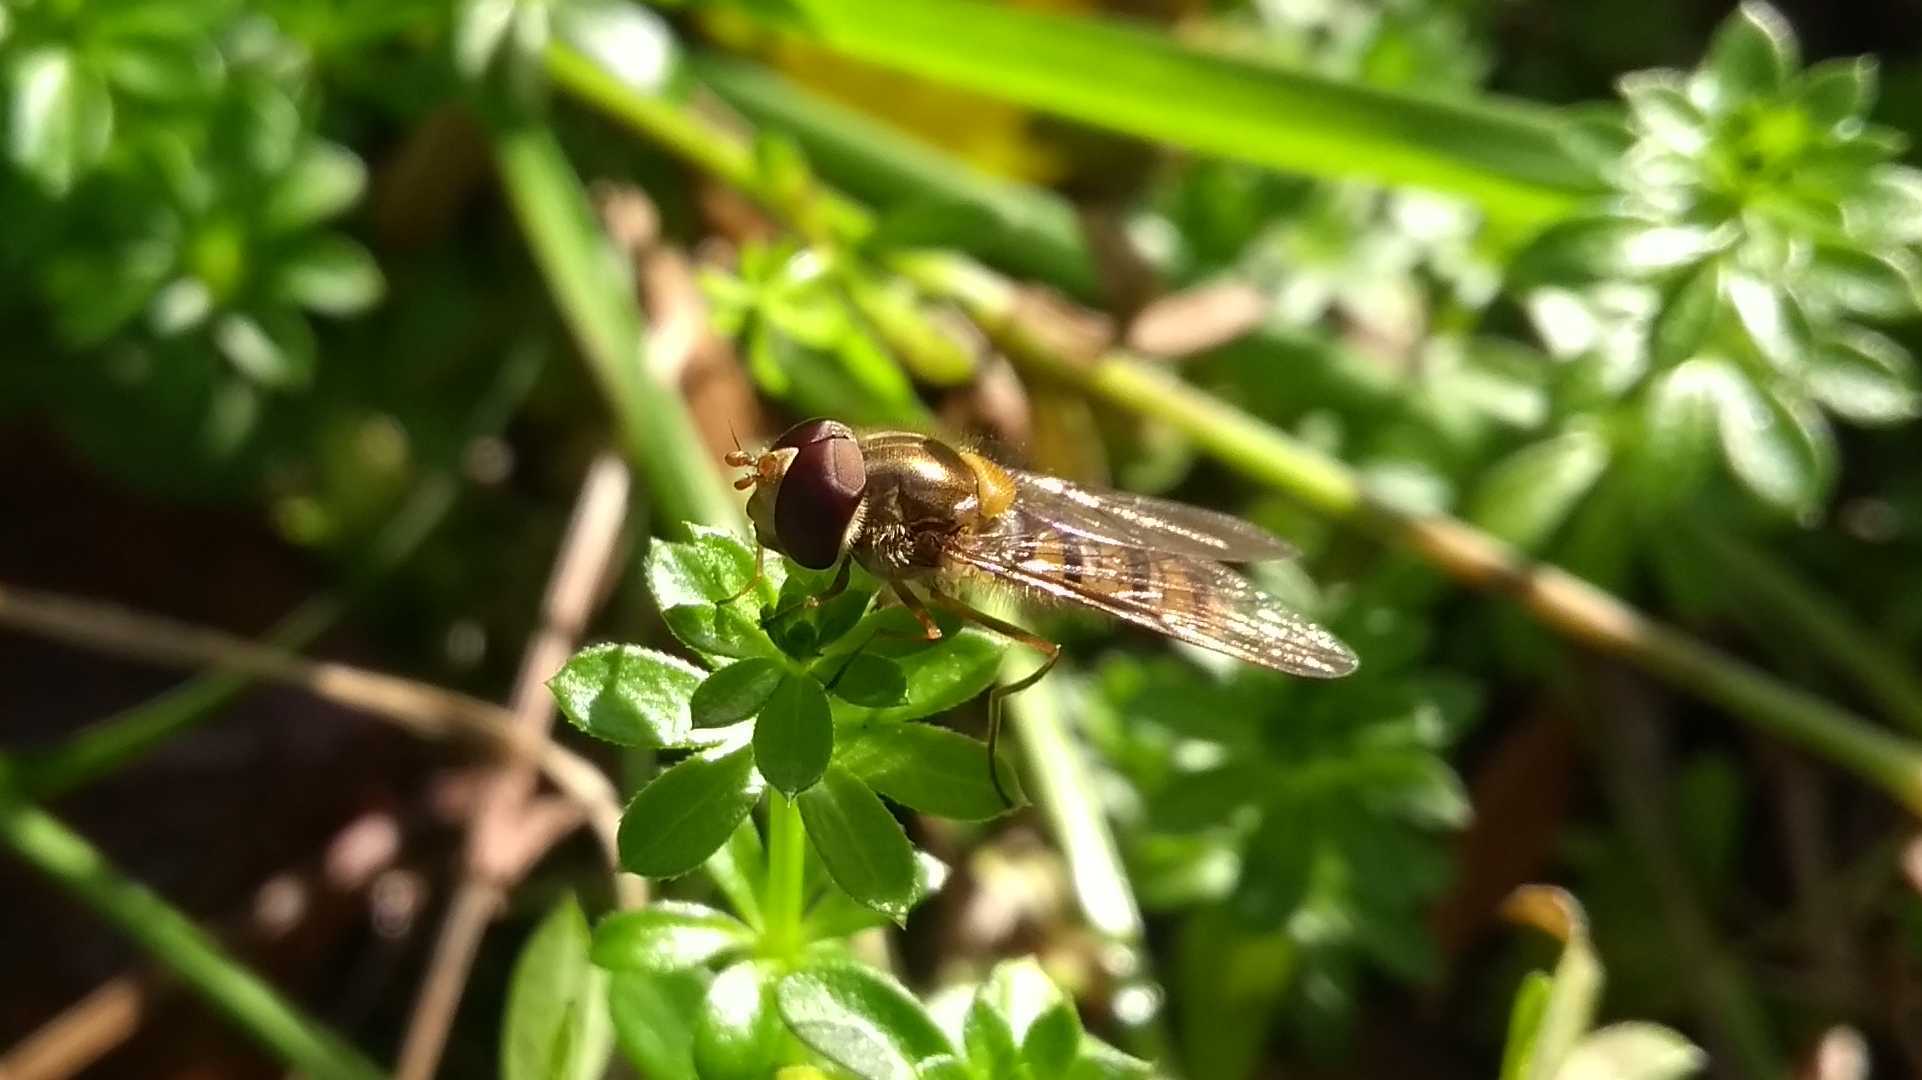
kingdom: Animalia
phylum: Arthropoda
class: Insecta
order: Diptera
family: Syrphidae
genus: Episyrphus
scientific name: Episyrphus balteatus
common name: Marmalade hoverfly
